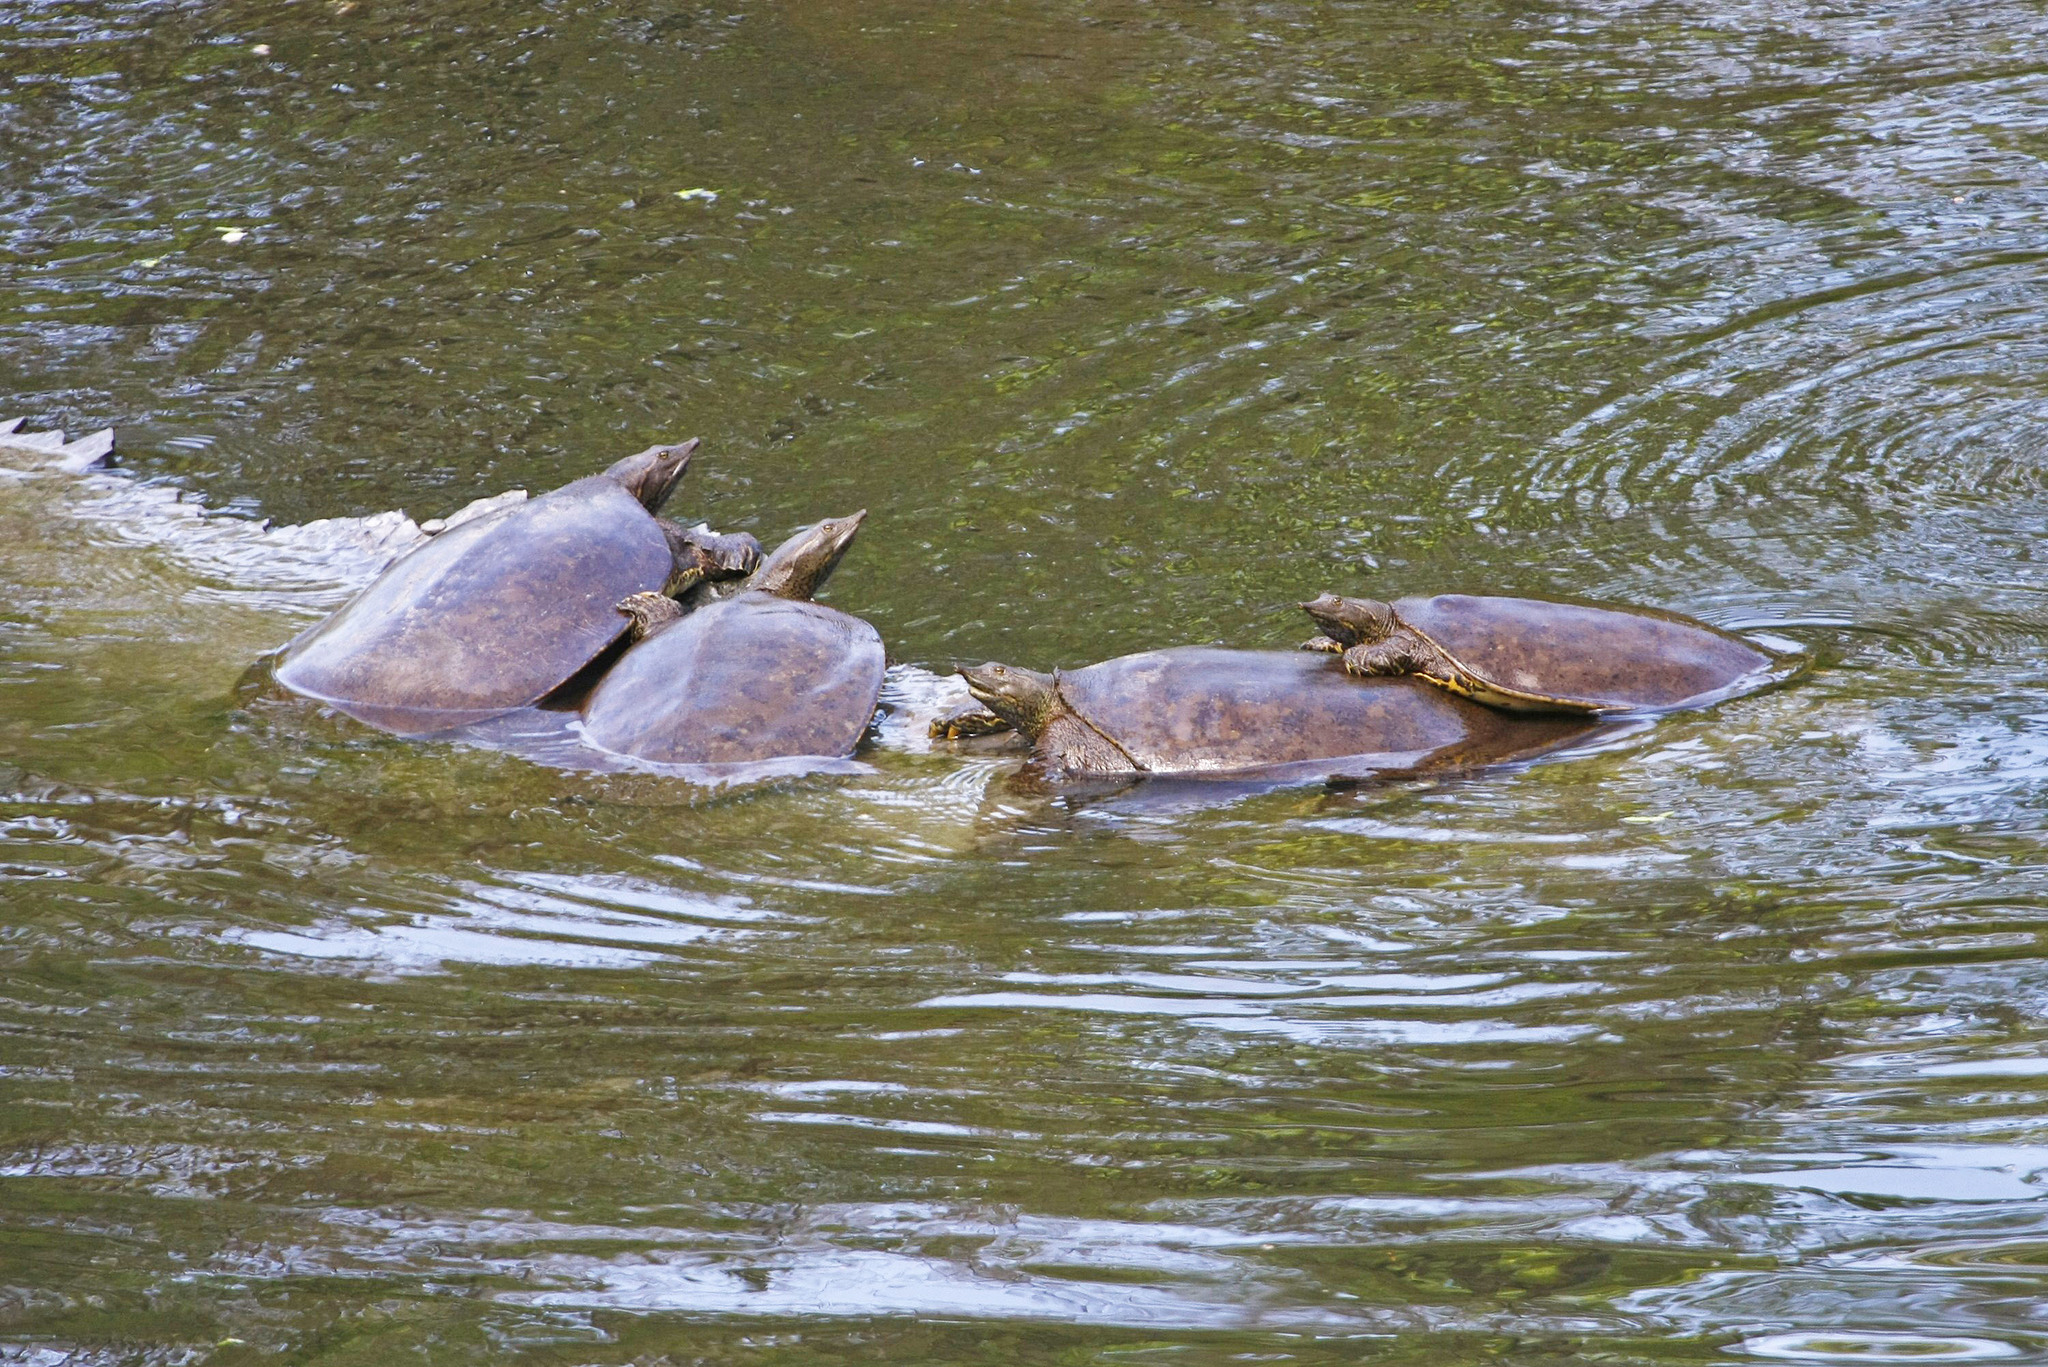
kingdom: Animalia
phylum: Chordata
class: Testudines
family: Trionychidae
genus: Apalone
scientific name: Apalone spinifera
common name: Spiny softshell turtle
